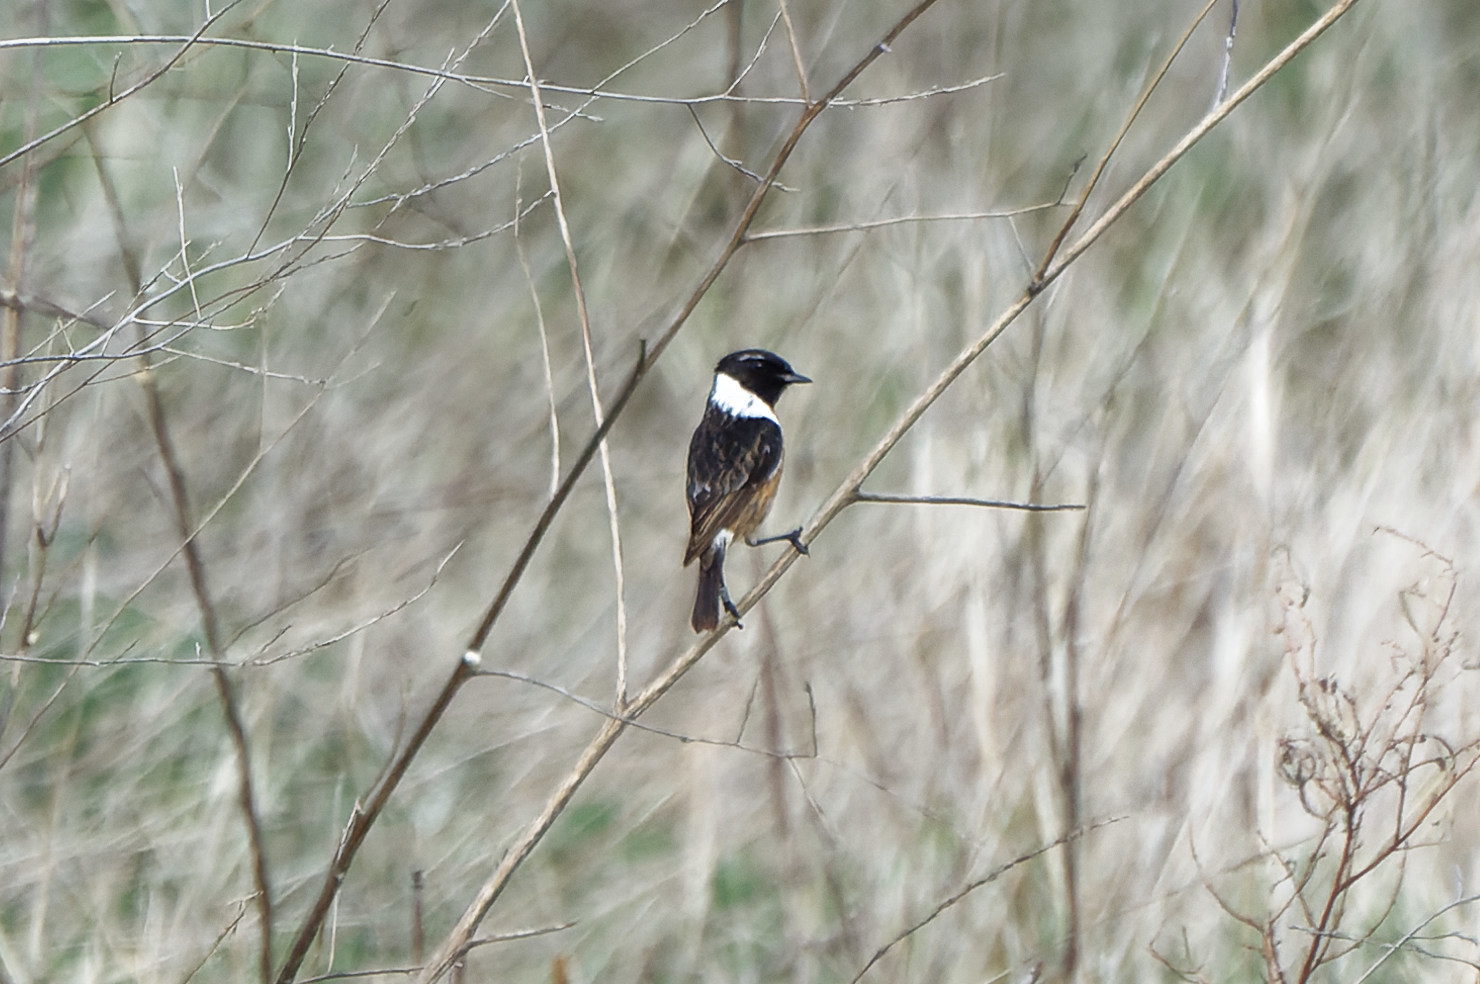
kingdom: Animalia
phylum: Chordata
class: Aves
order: Passeriformes
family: Muscicapidae
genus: Saxicola
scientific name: Saxicola rubicola
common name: European stonechat
